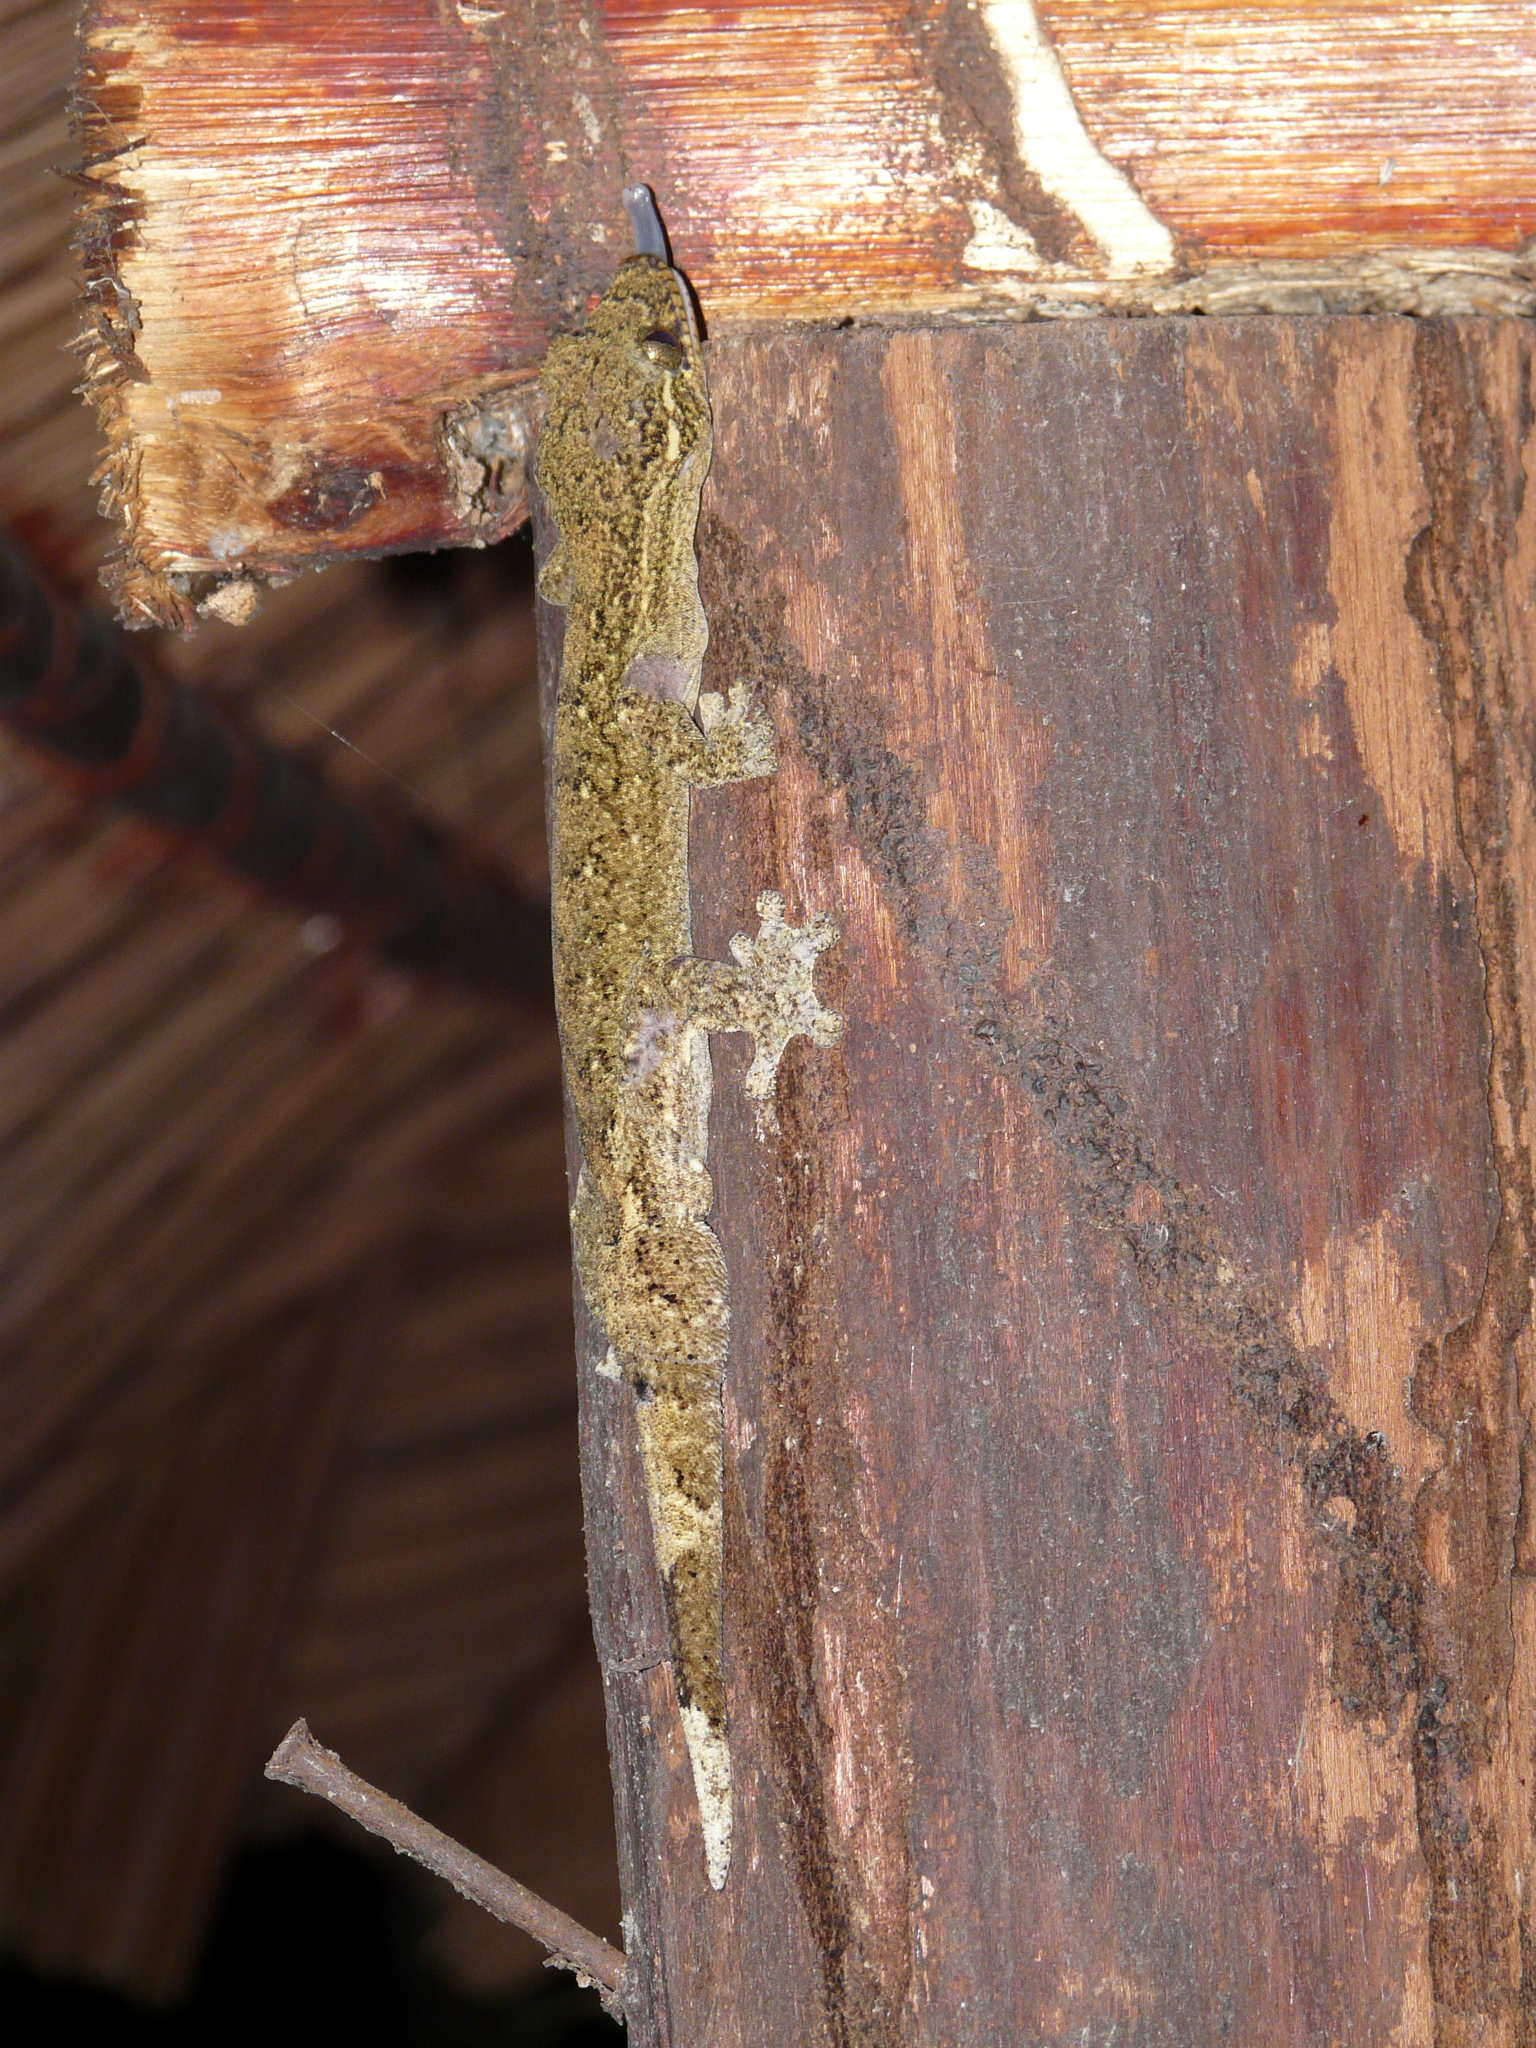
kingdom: Animalia
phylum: Chordata
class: Squamata
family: Phyllodactylidae
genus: Thecadactylus
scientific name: Thecadactylus rapicauda
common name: Turnip-tailed gecko
